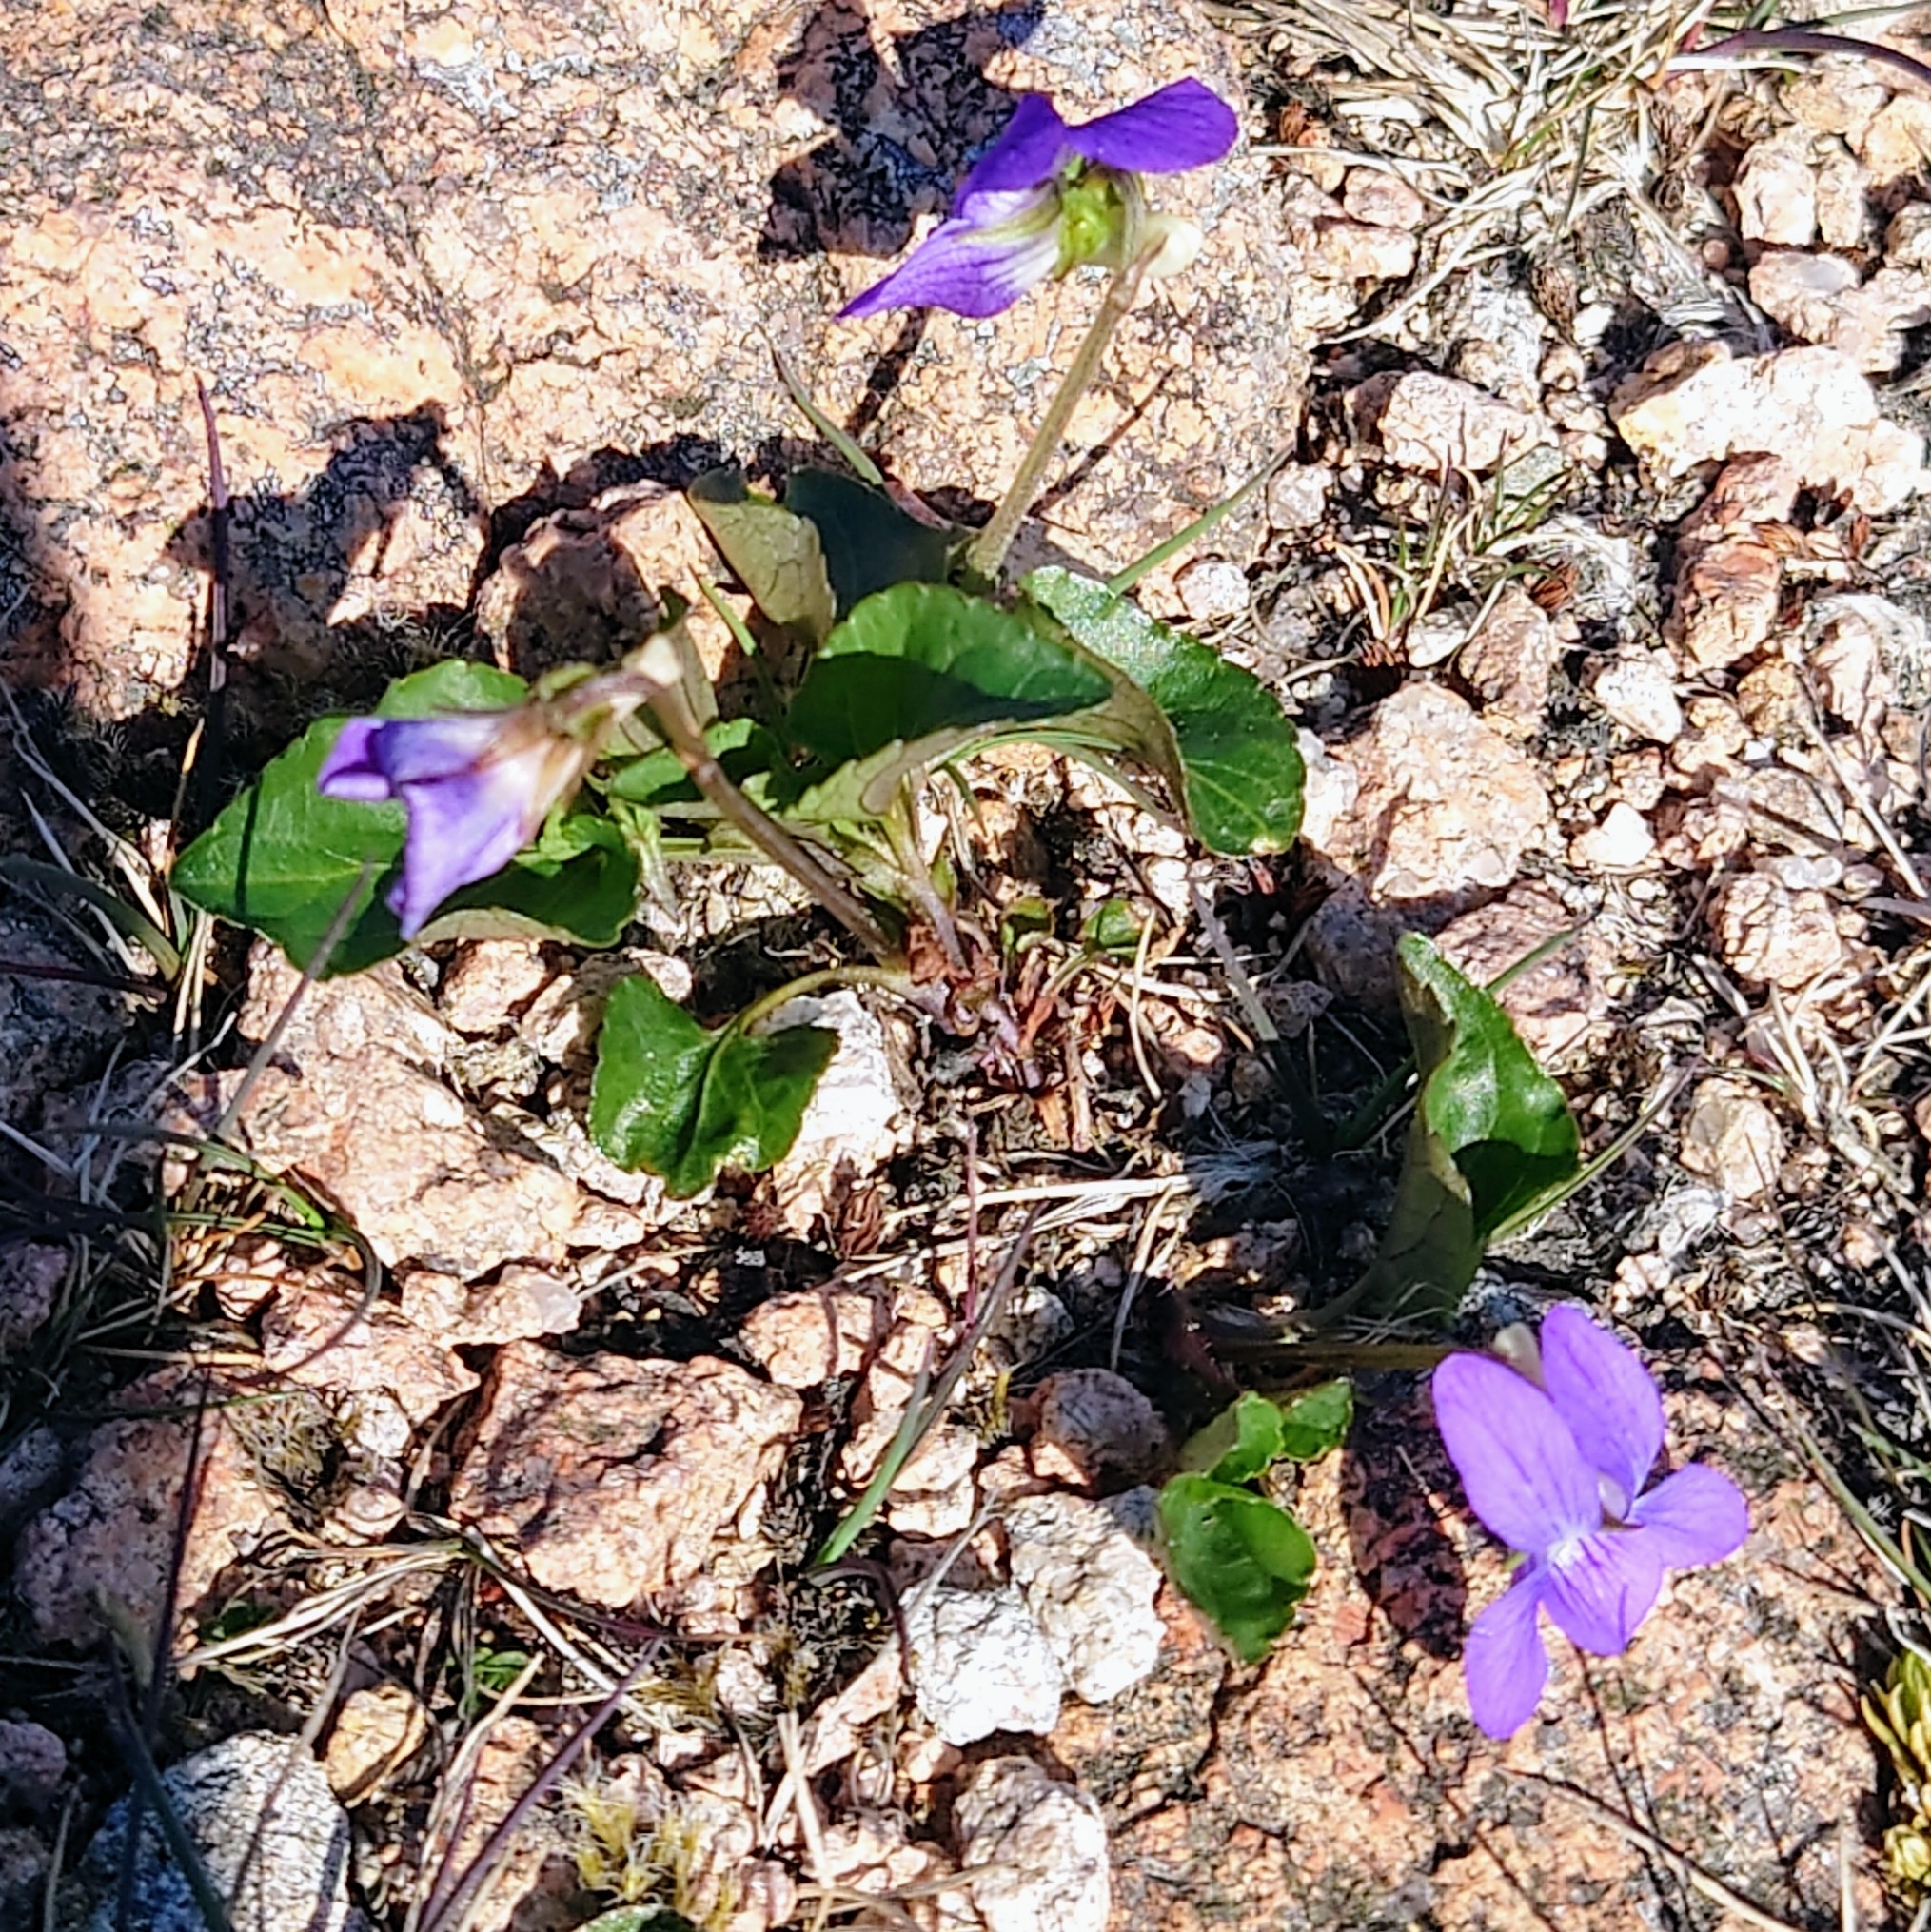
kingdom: Plantae
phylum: Tracheophyta
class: Magnoliopsida
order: Malpighiales
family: Violaceae
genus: Viola
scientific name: Viola riviniana
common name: Common dog-violet
